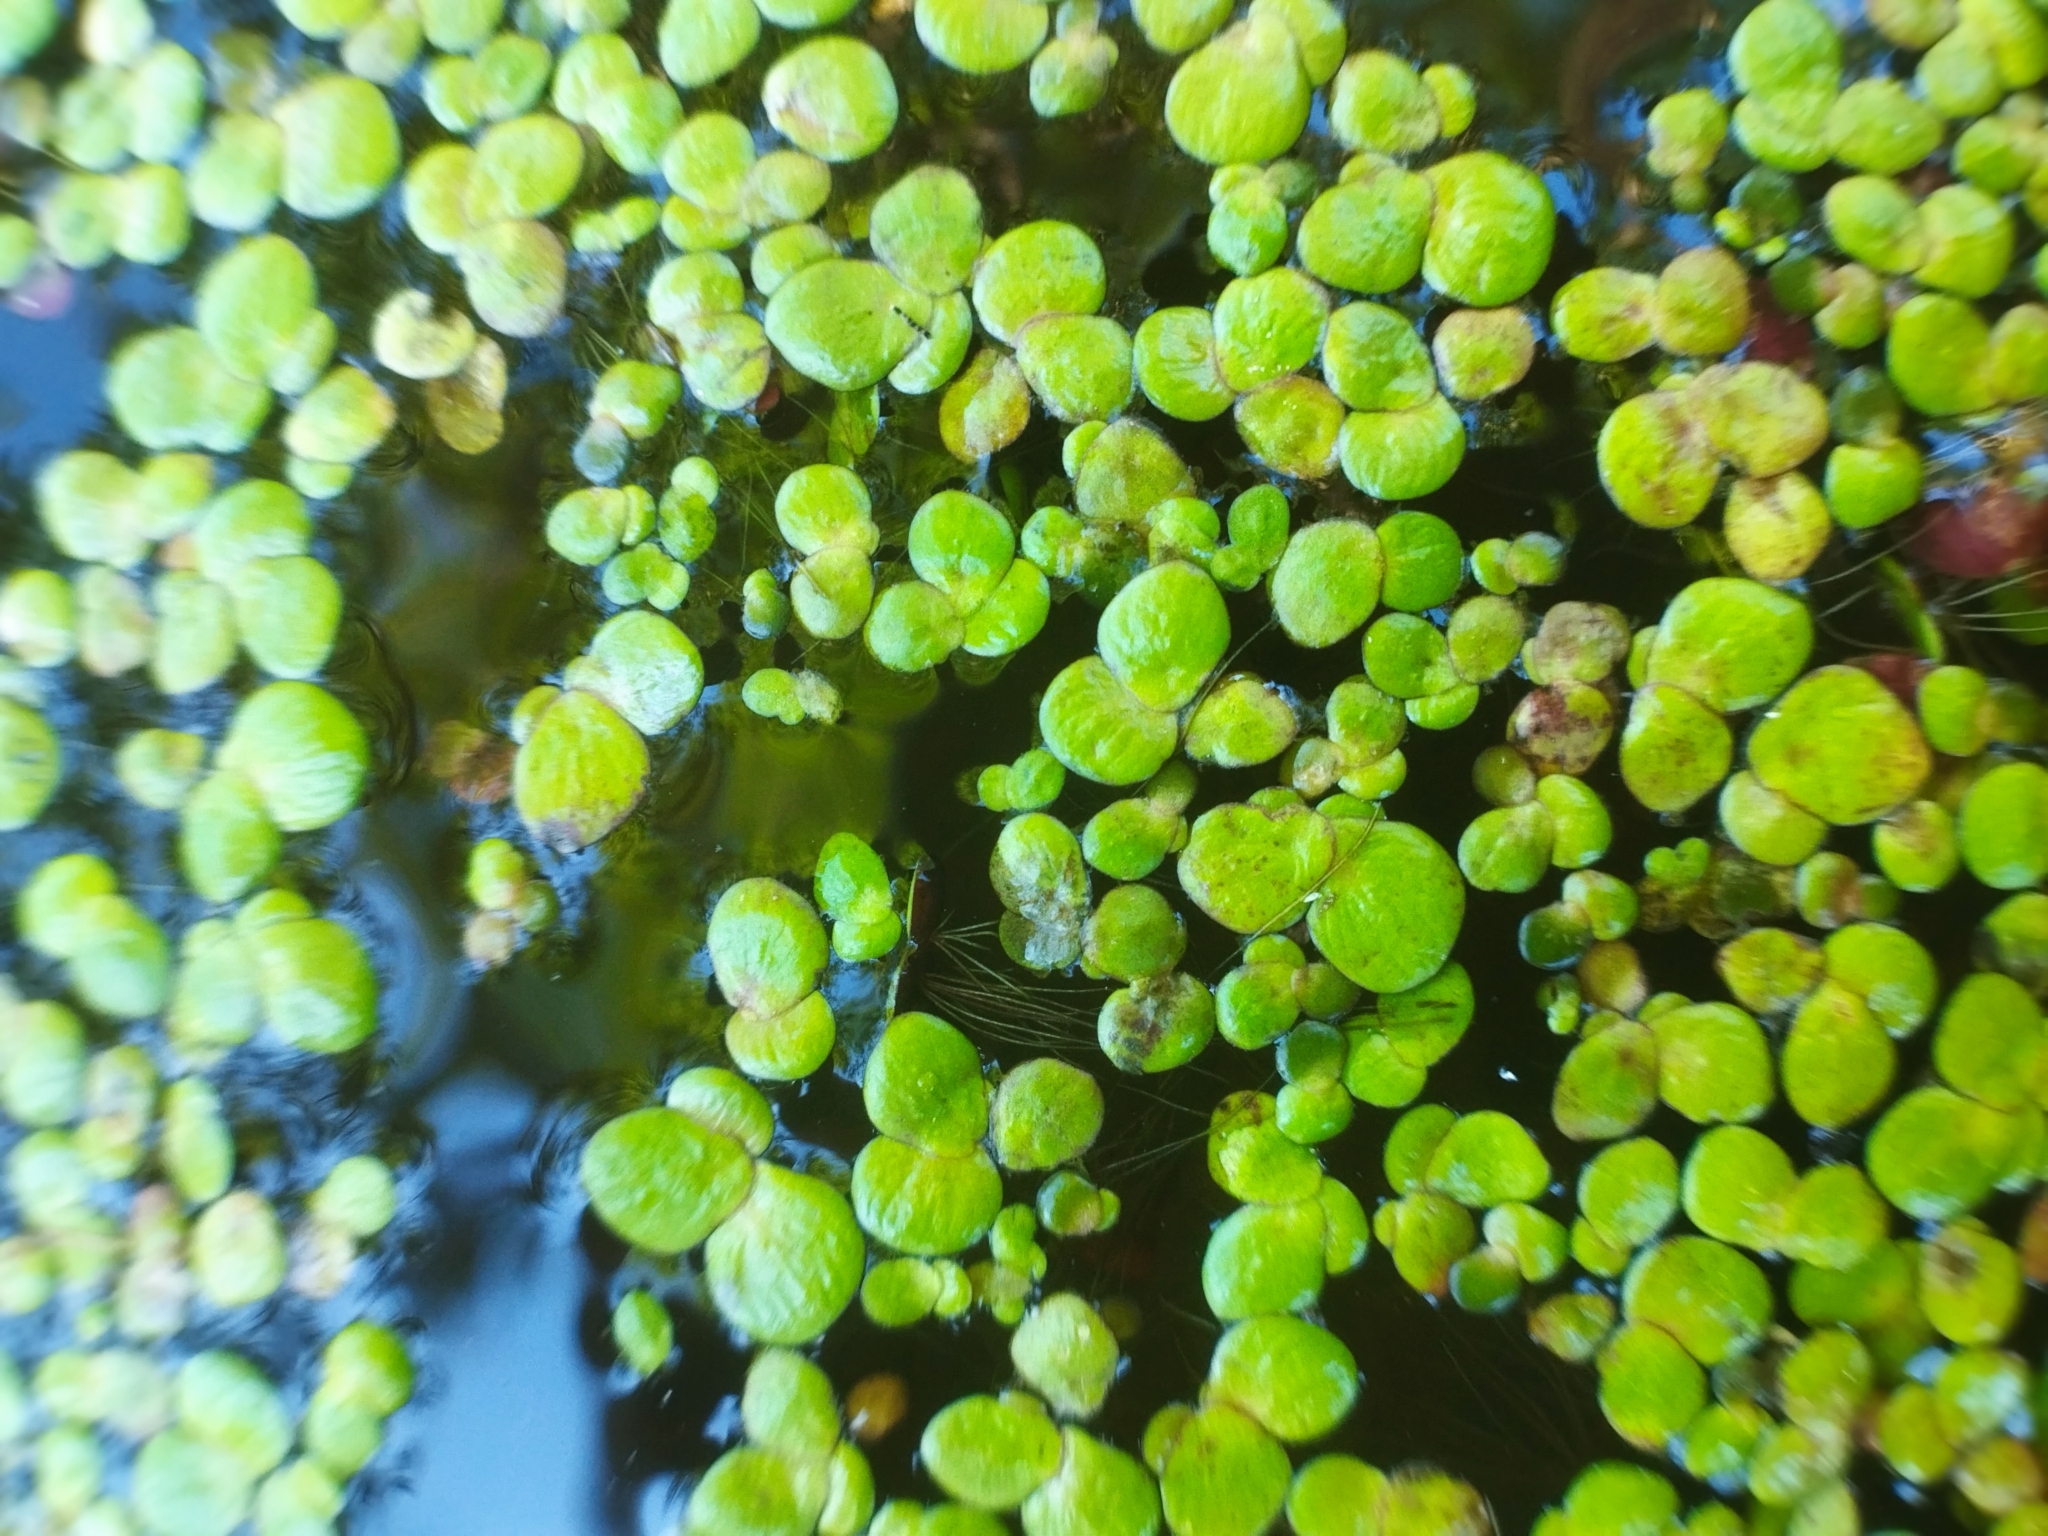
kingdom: Plantae
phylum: Tracheophyta
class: Liliopsida
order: Alismatales
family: Araceae
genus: Spirodela
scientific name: Spirodela polyrhiza
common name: Great duckweed
